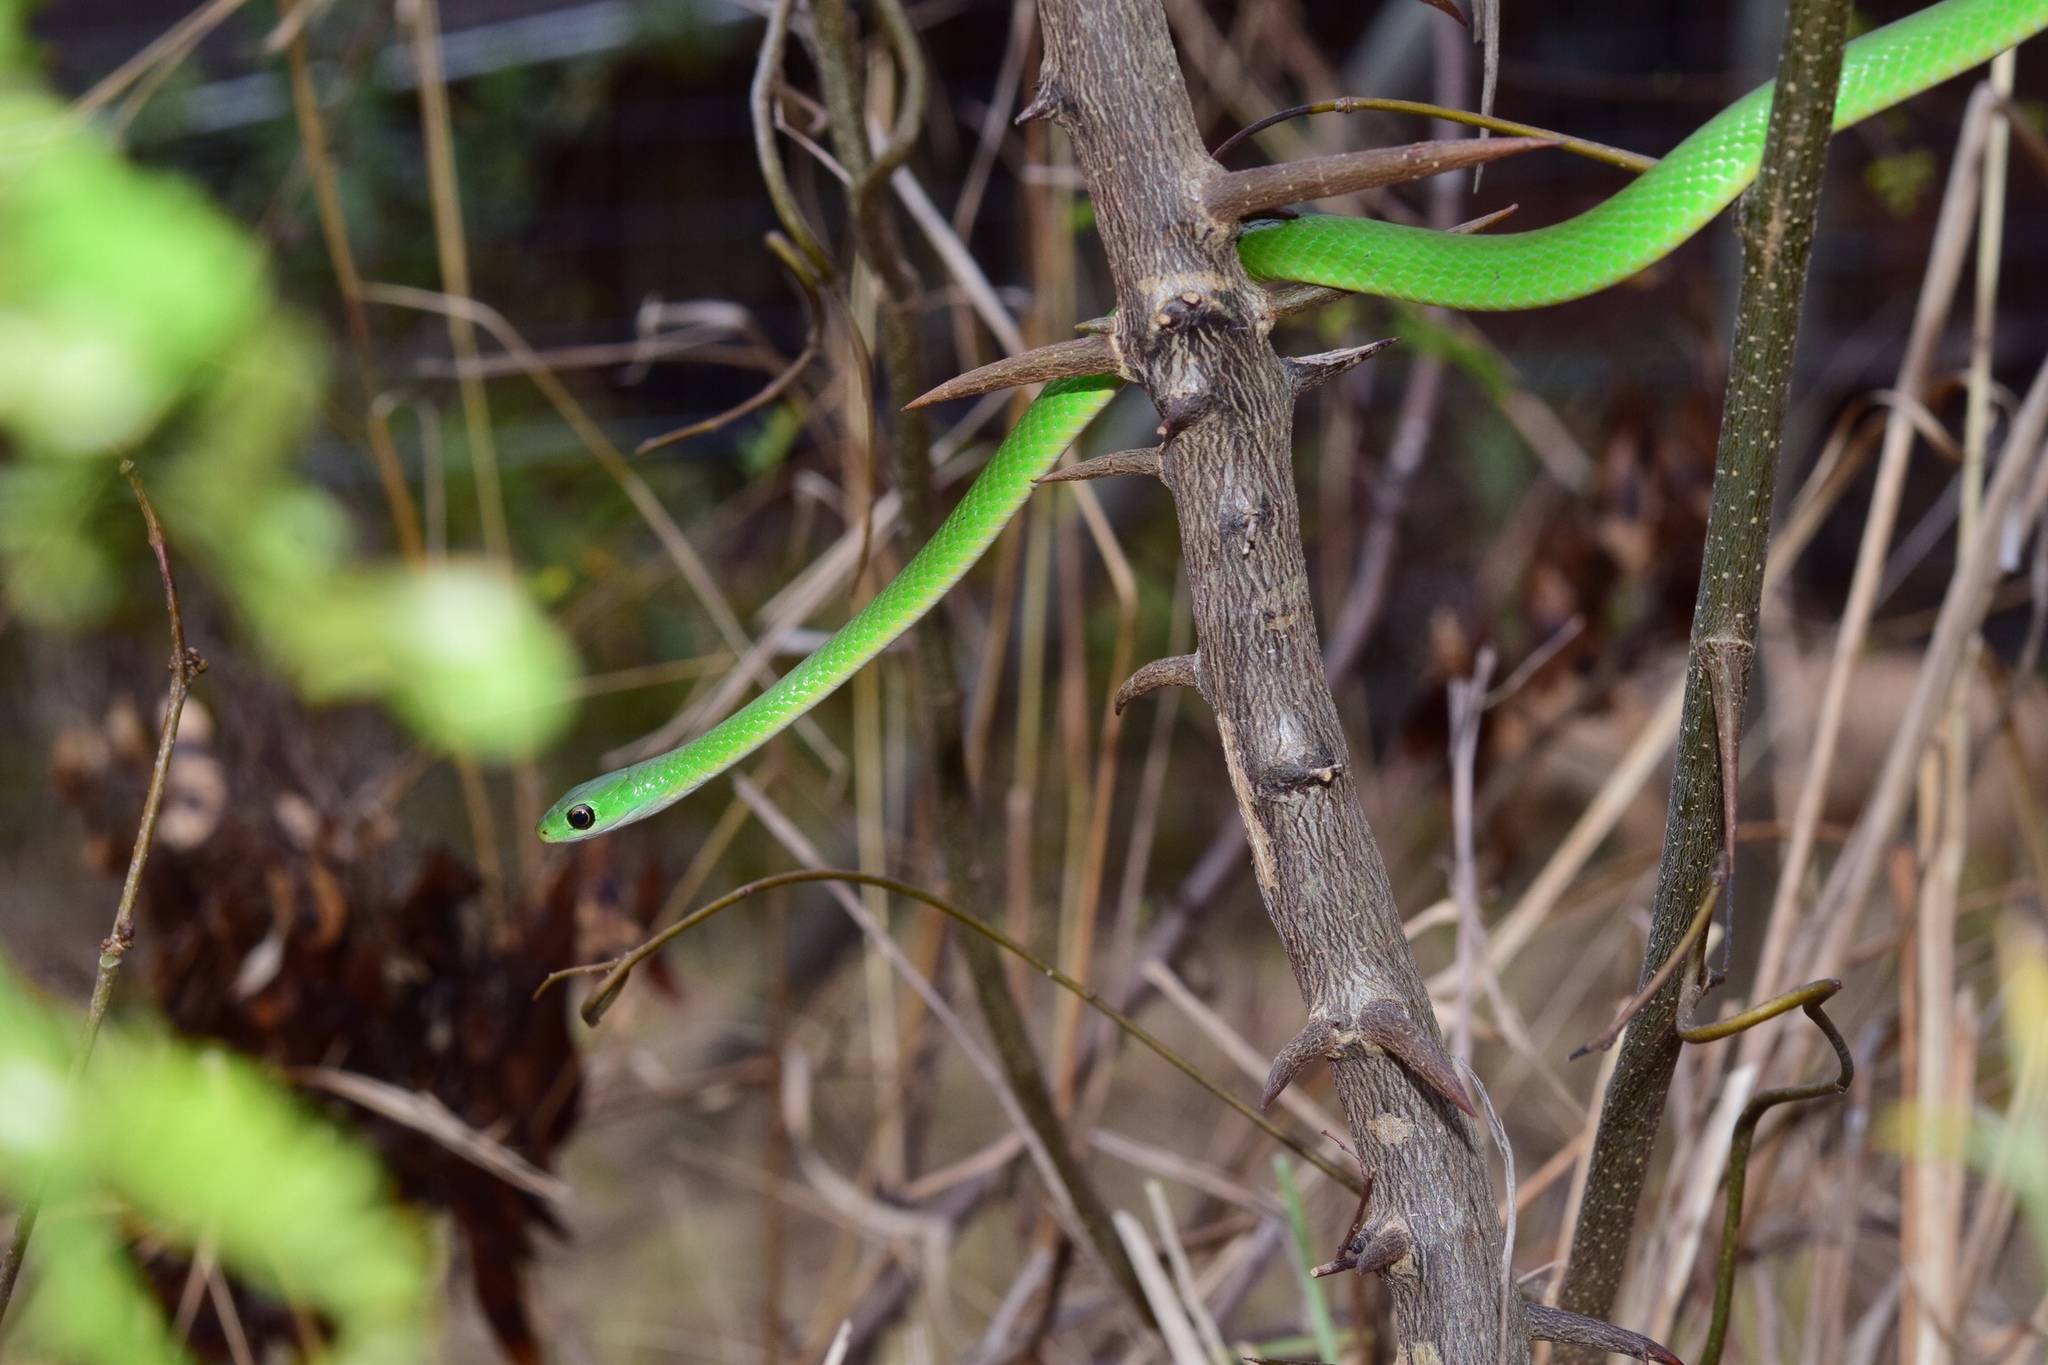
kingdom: Animalia
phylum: Chordata
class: Squamata
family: Colubridae
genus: Philothamnus
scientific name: Philothamnus hoplogaster
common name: Green water snake
